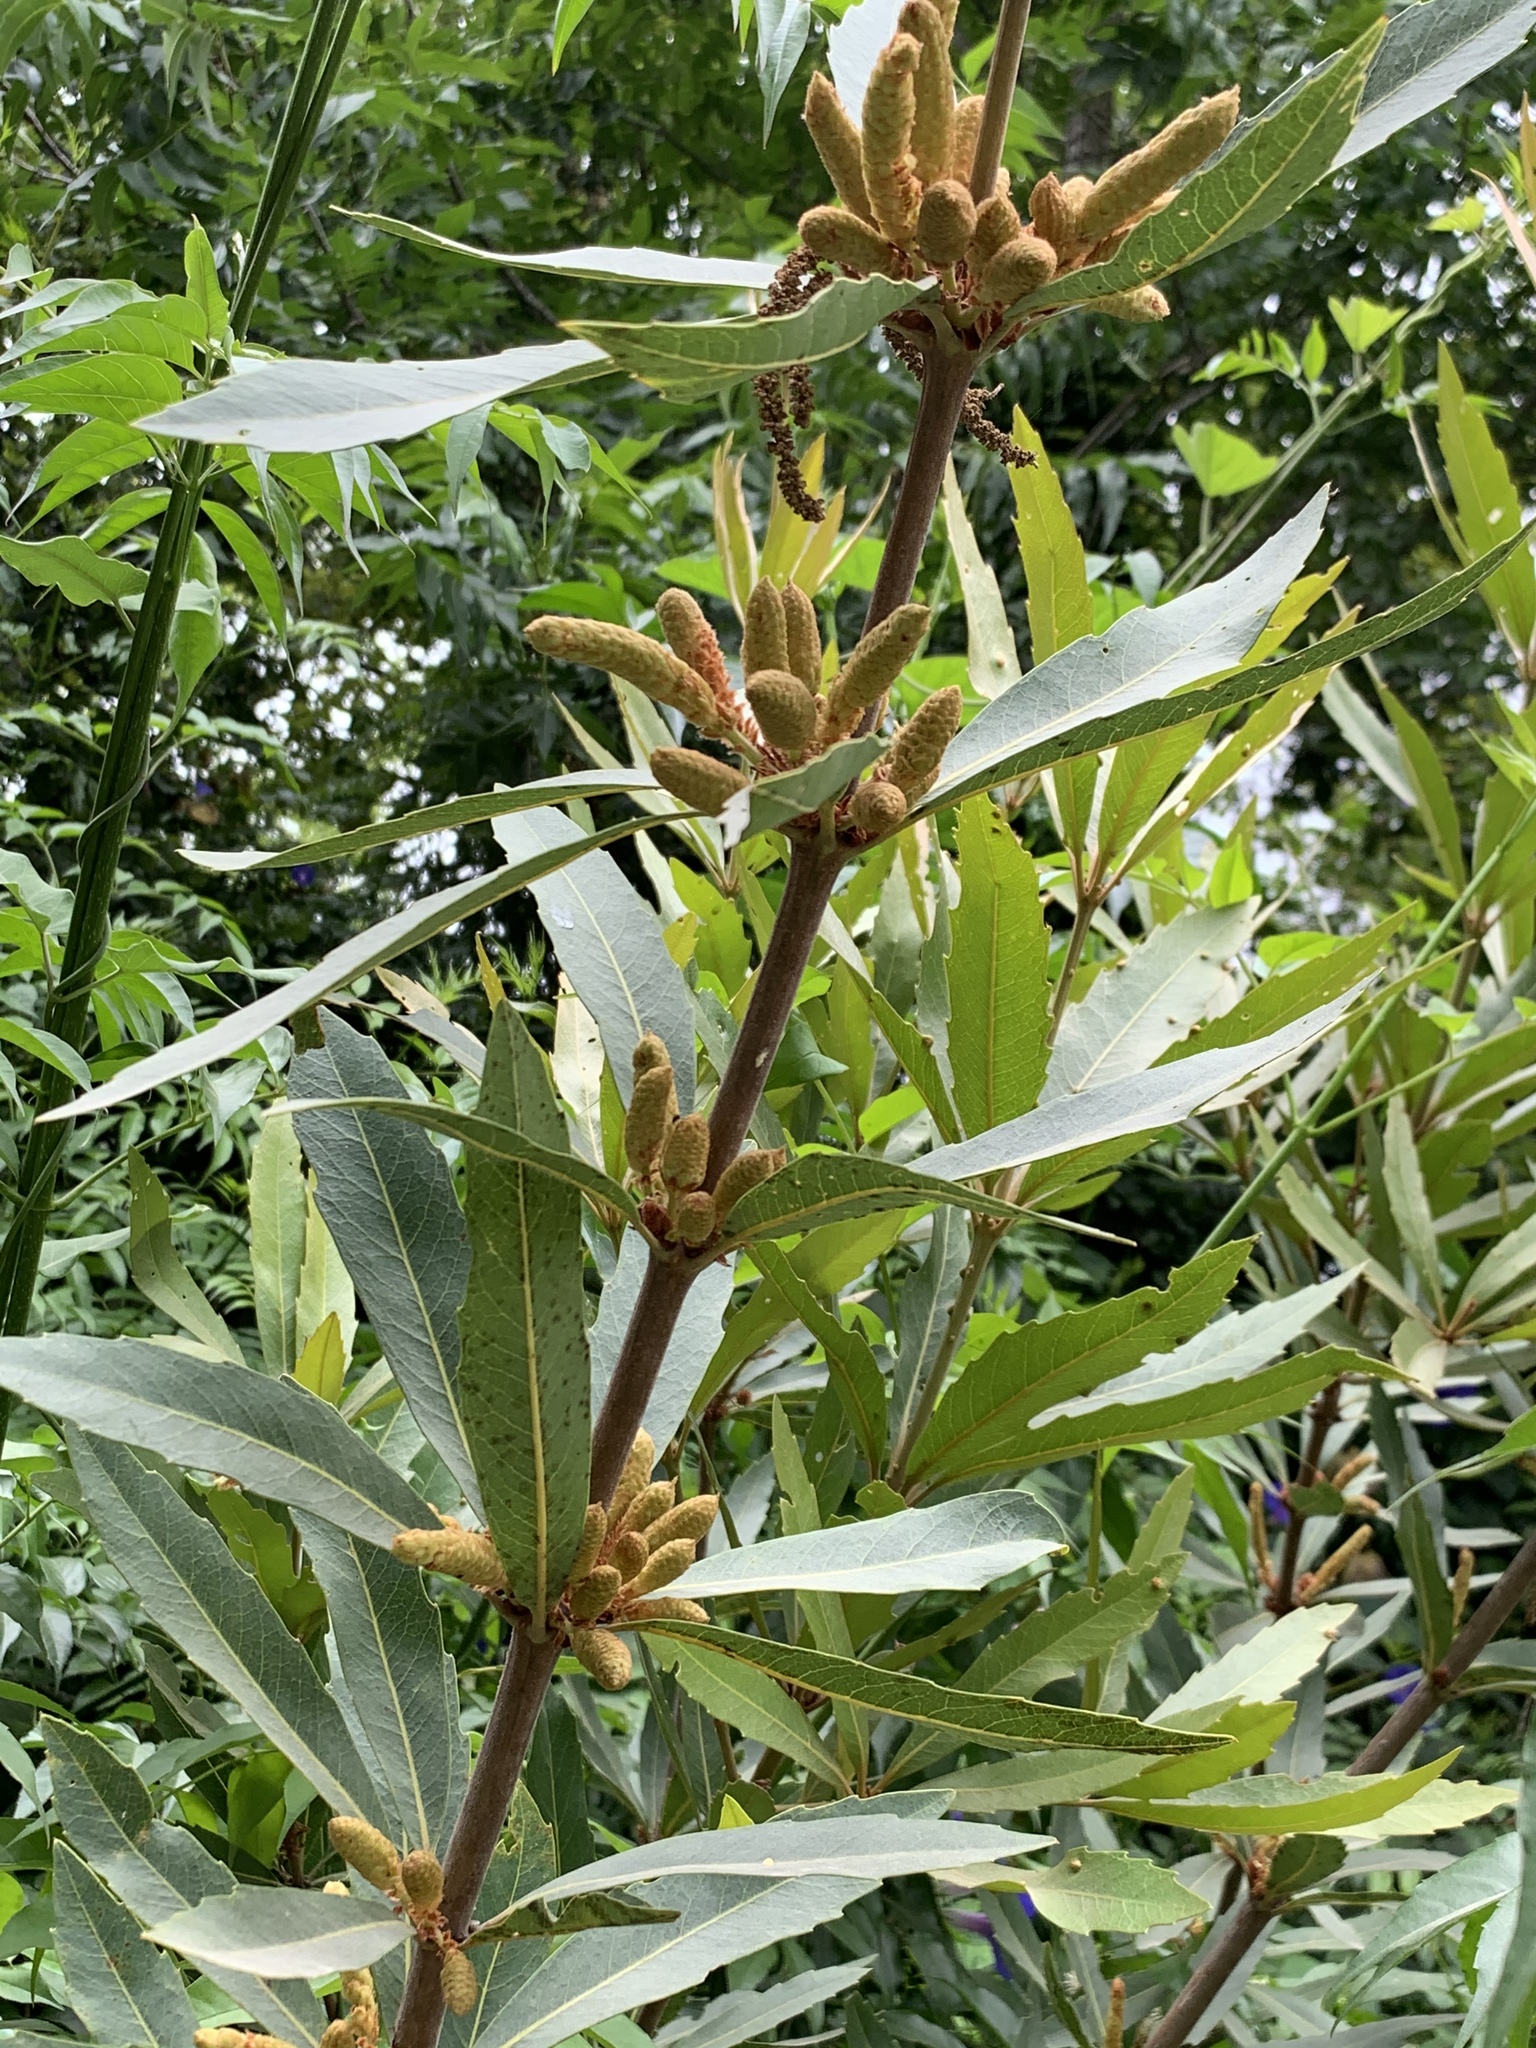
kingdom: Plantae
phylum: Tracheophyta
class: Magnoliopsida
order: Proteales
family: Proteaceae
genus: Brabejum
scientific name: Brabejum stellatifolium
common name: Wild almond
